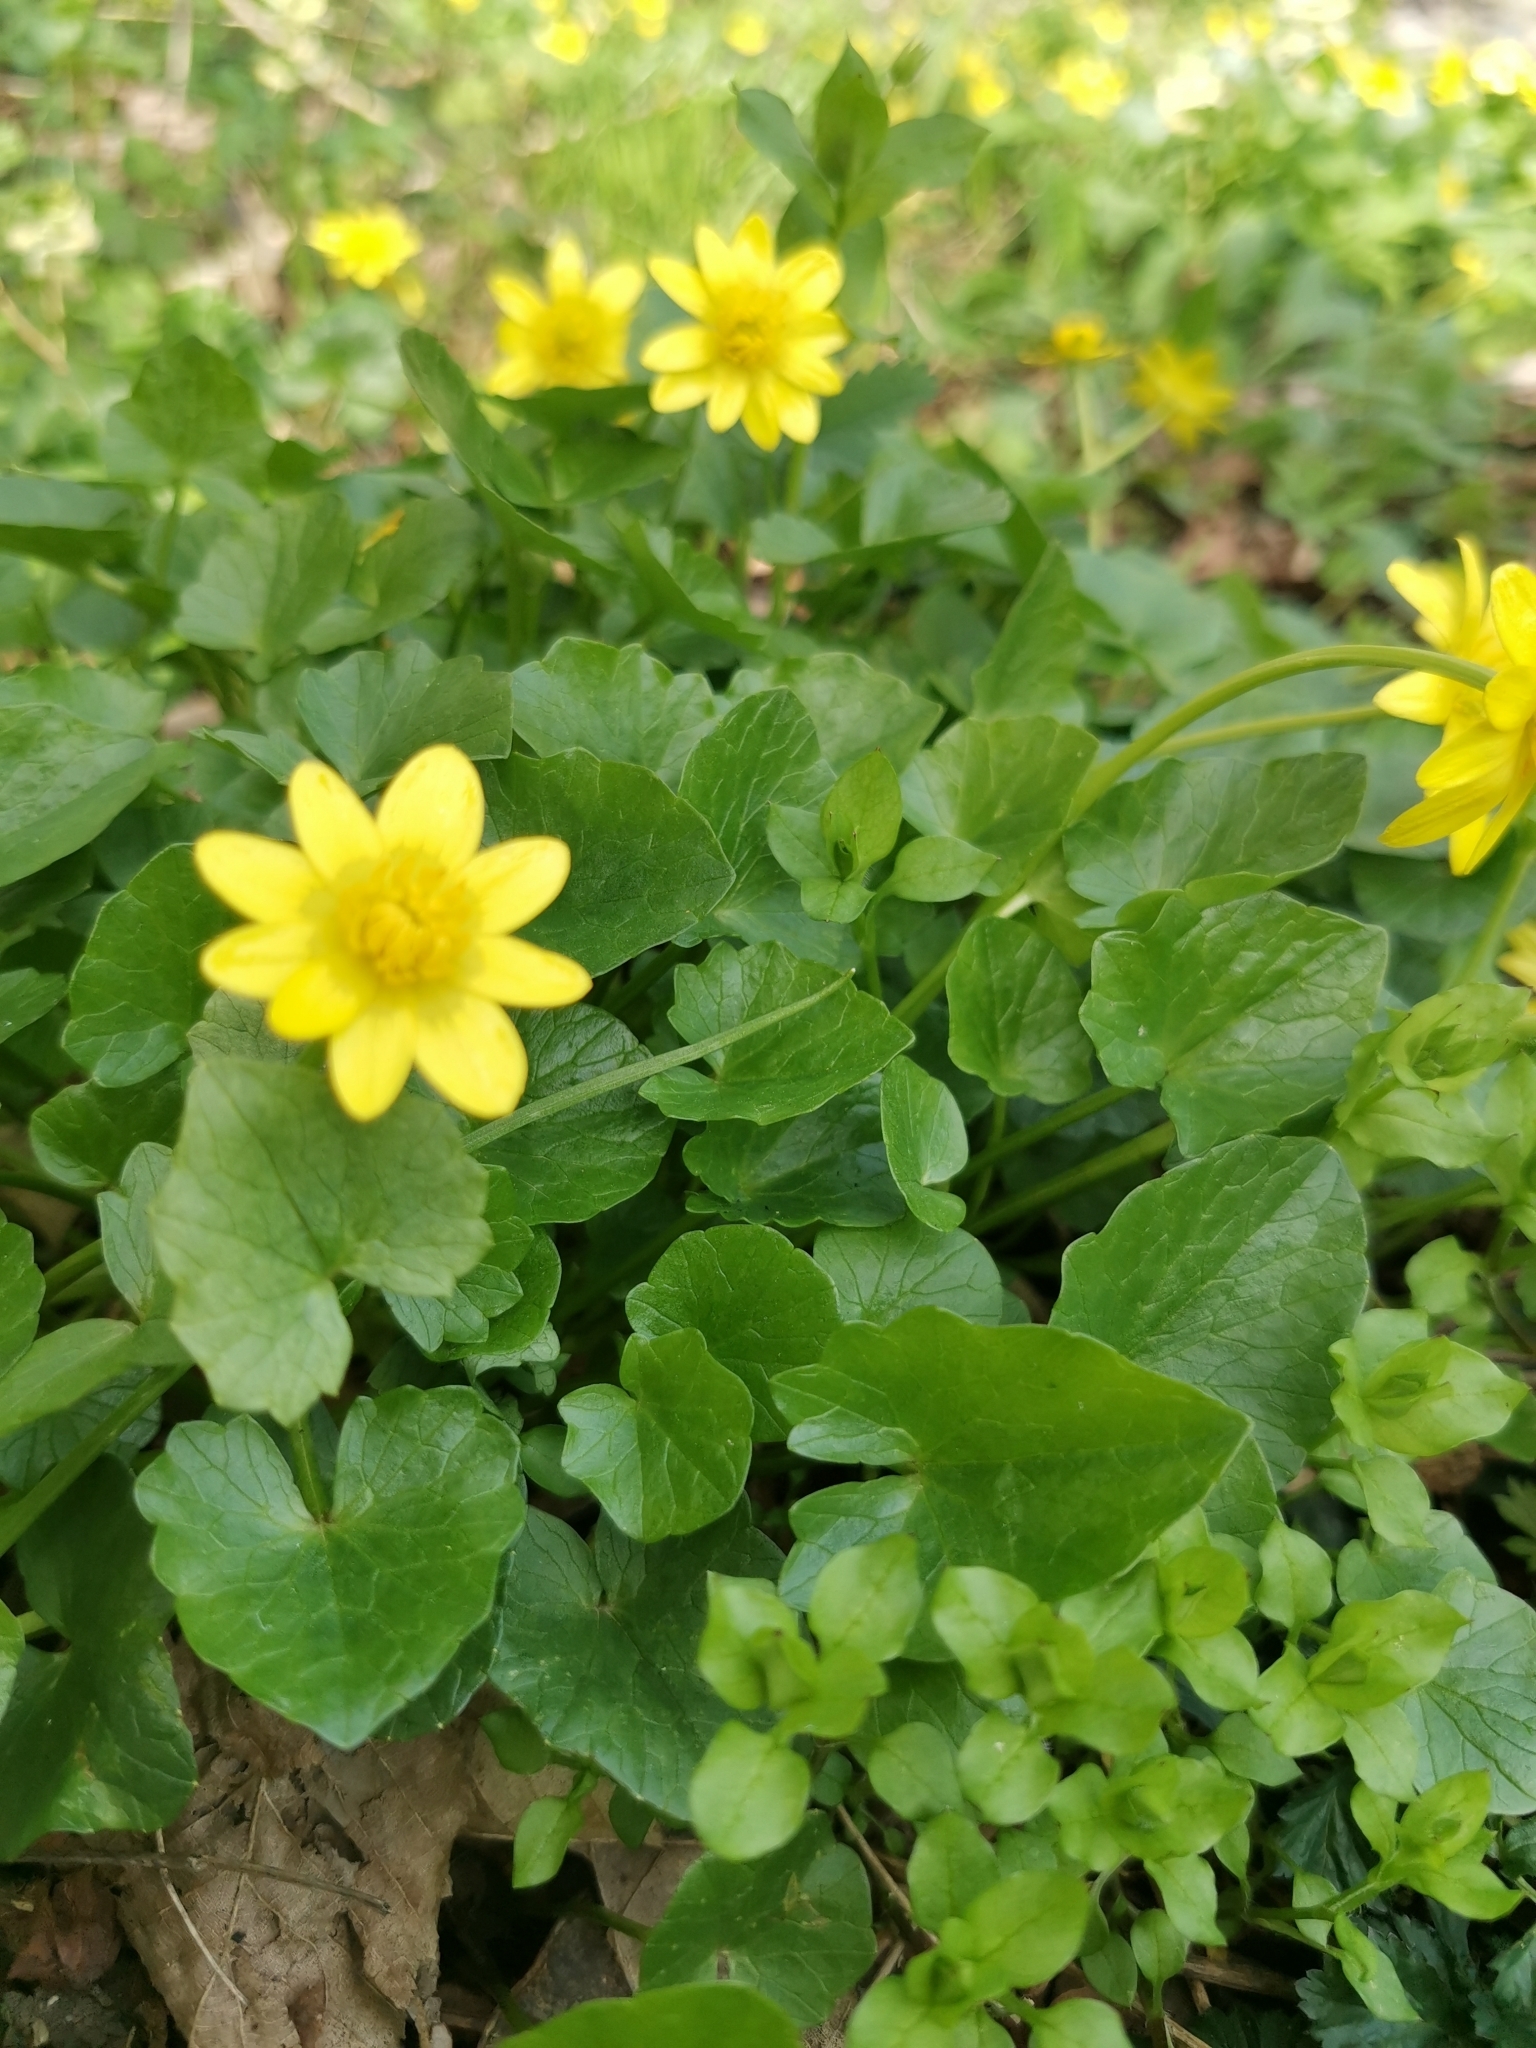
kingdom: Plantae
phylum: Tracheophyta
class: Magnoliopsida
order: Ranunculales
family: Ranunculaceae
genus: Ficaria
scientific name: Ficaria verna
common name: Lesser celandine
